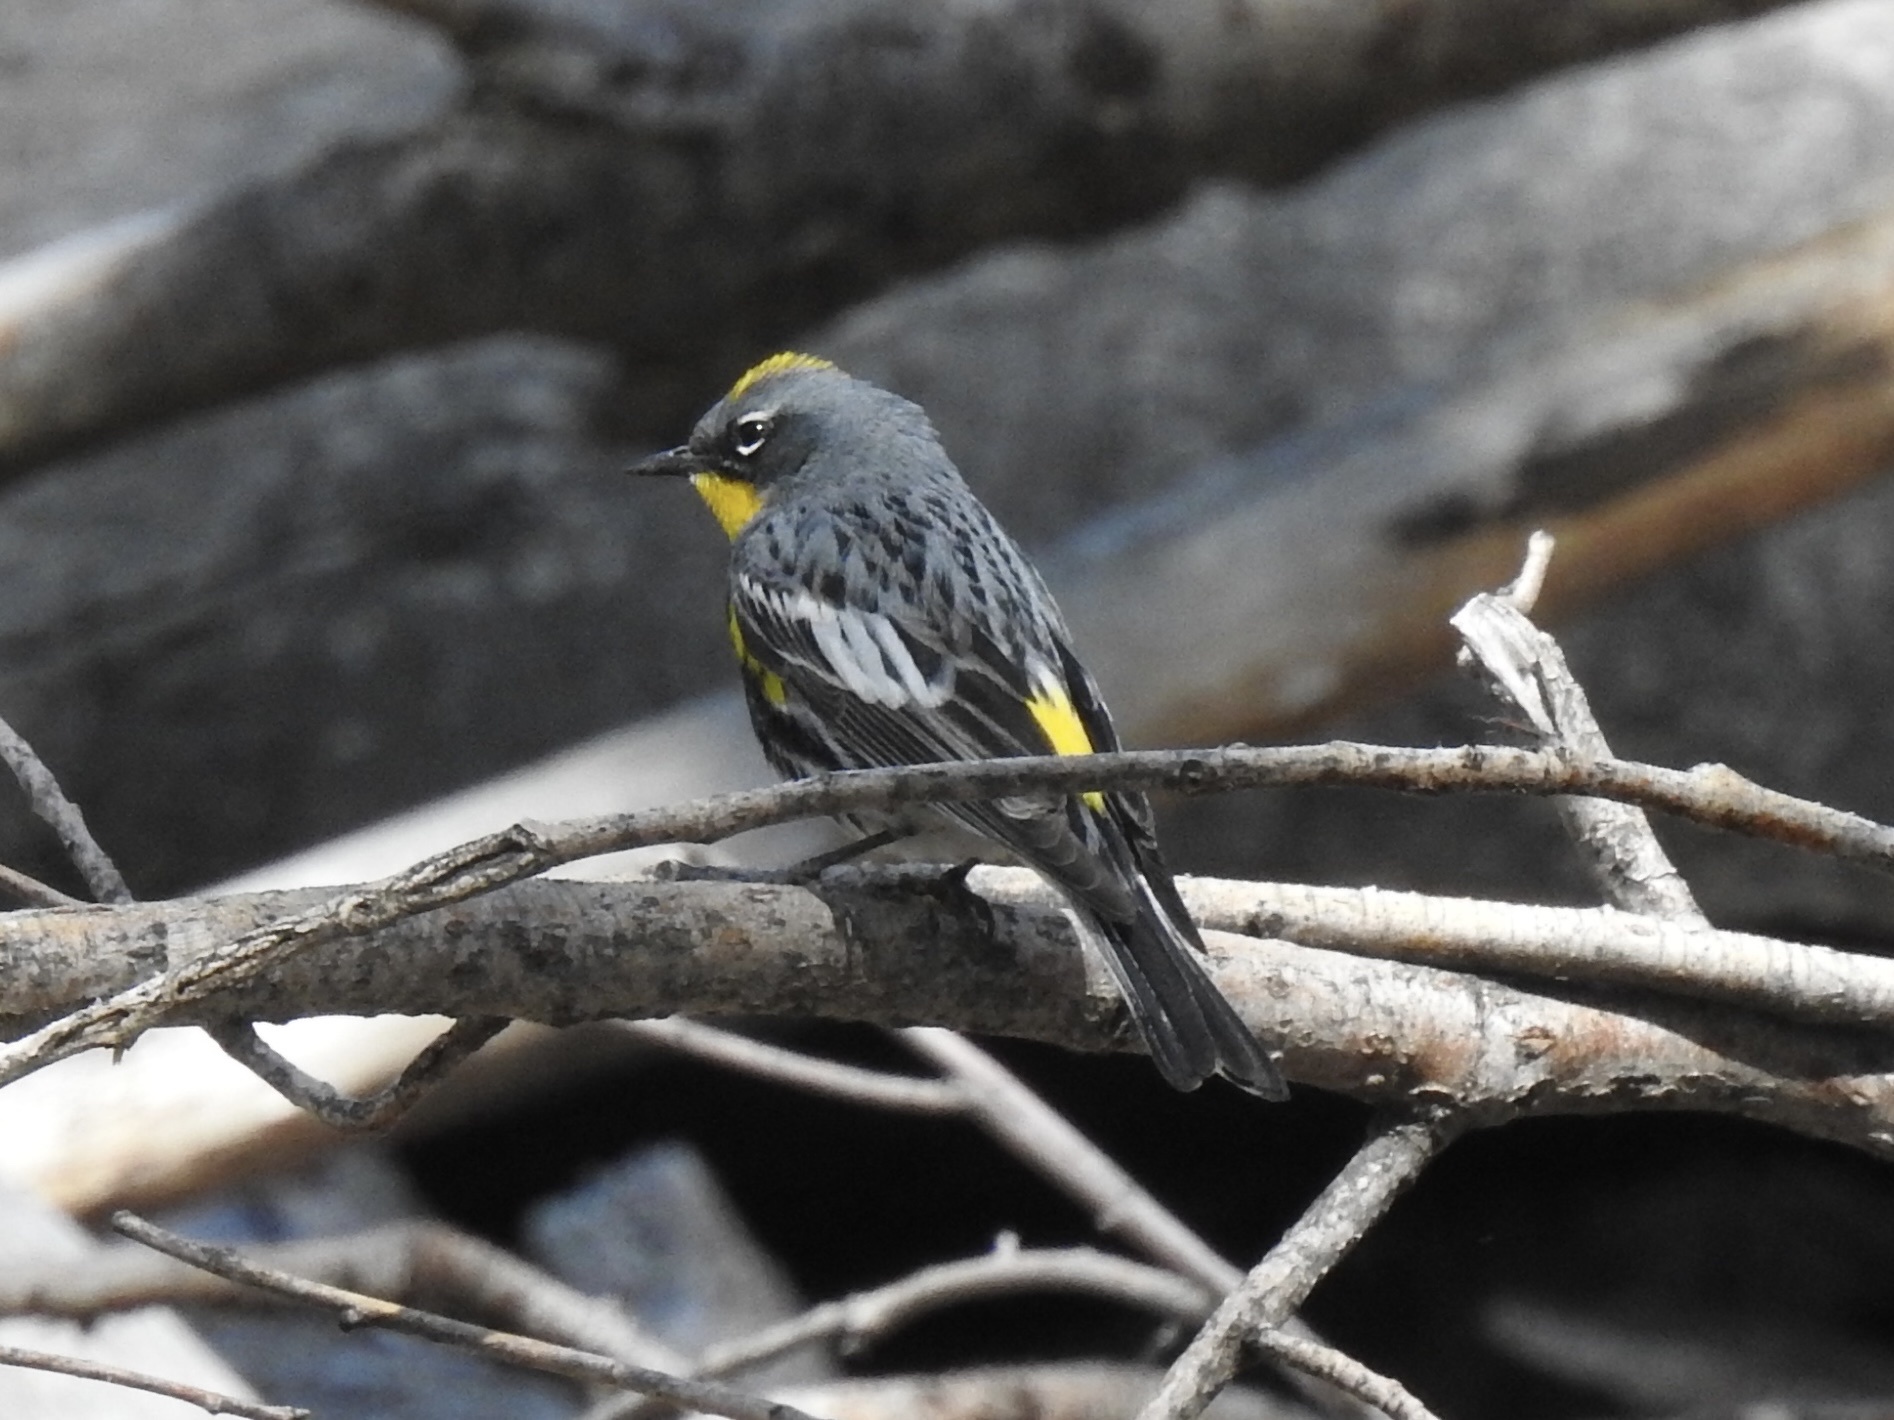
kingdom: Animalia
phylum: Chordata
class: Aves
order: Passeriformes
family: Parulidae
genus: Setophaga
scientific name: Setophaga coronata
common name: Myrtle warbler
